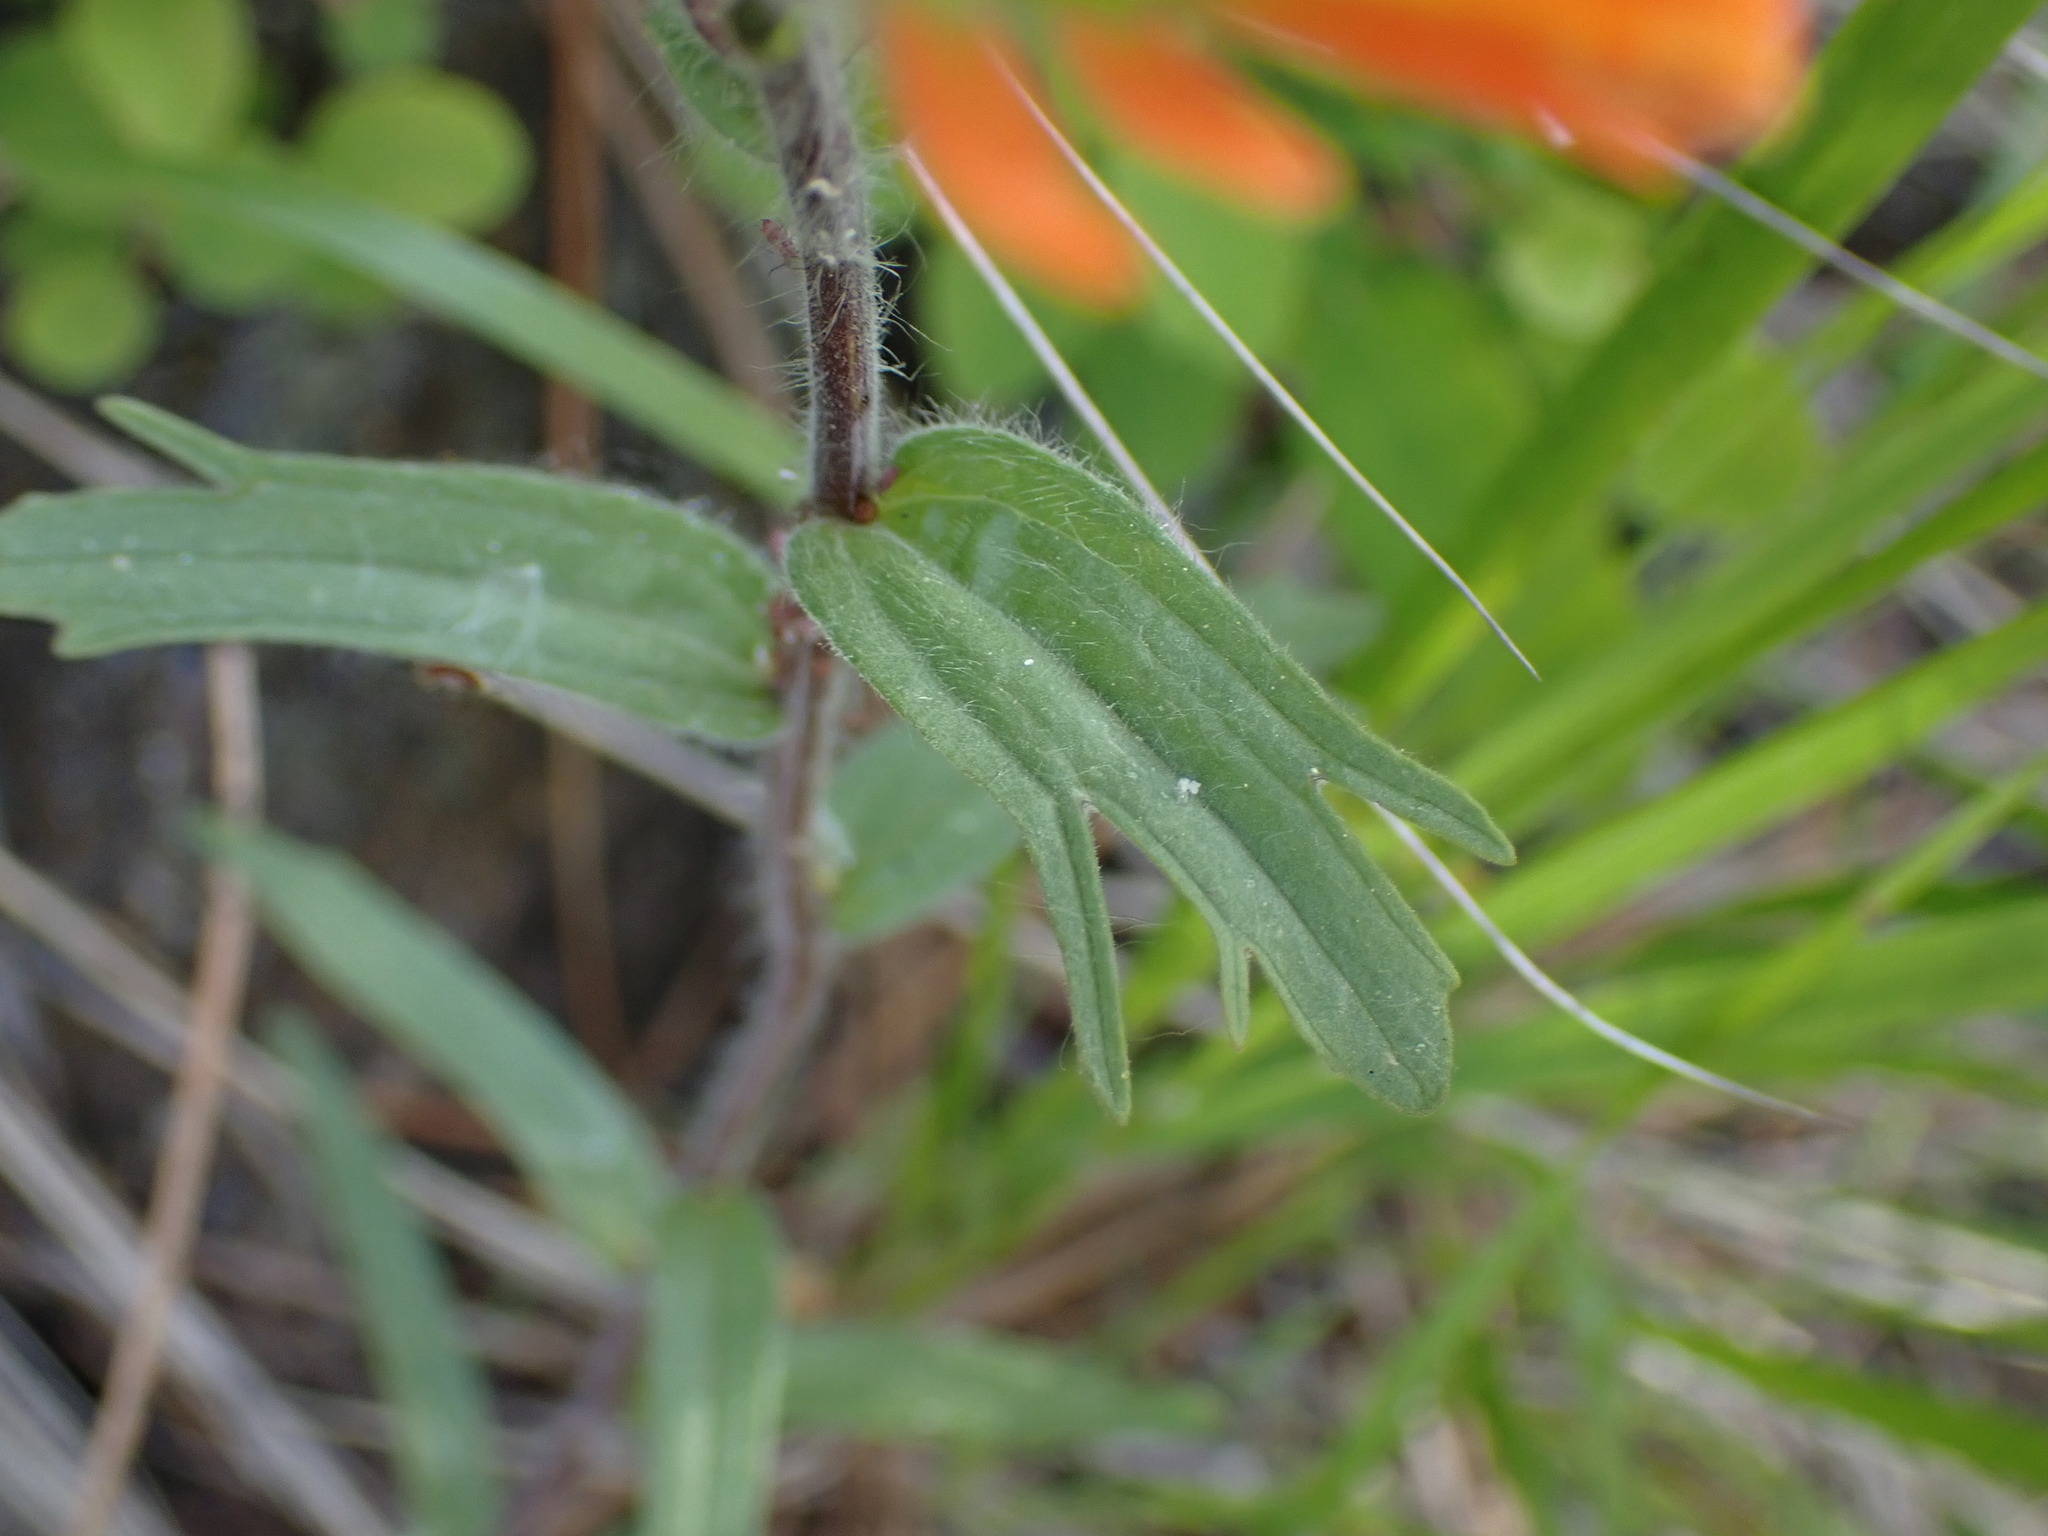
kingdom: Plantae
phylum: Tracheophyta
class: Magnoliopsida
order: Lamiales
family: Orobanchaceae
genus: Castilleja
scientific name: Castilleja hispida
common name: Bristly paintbrush
